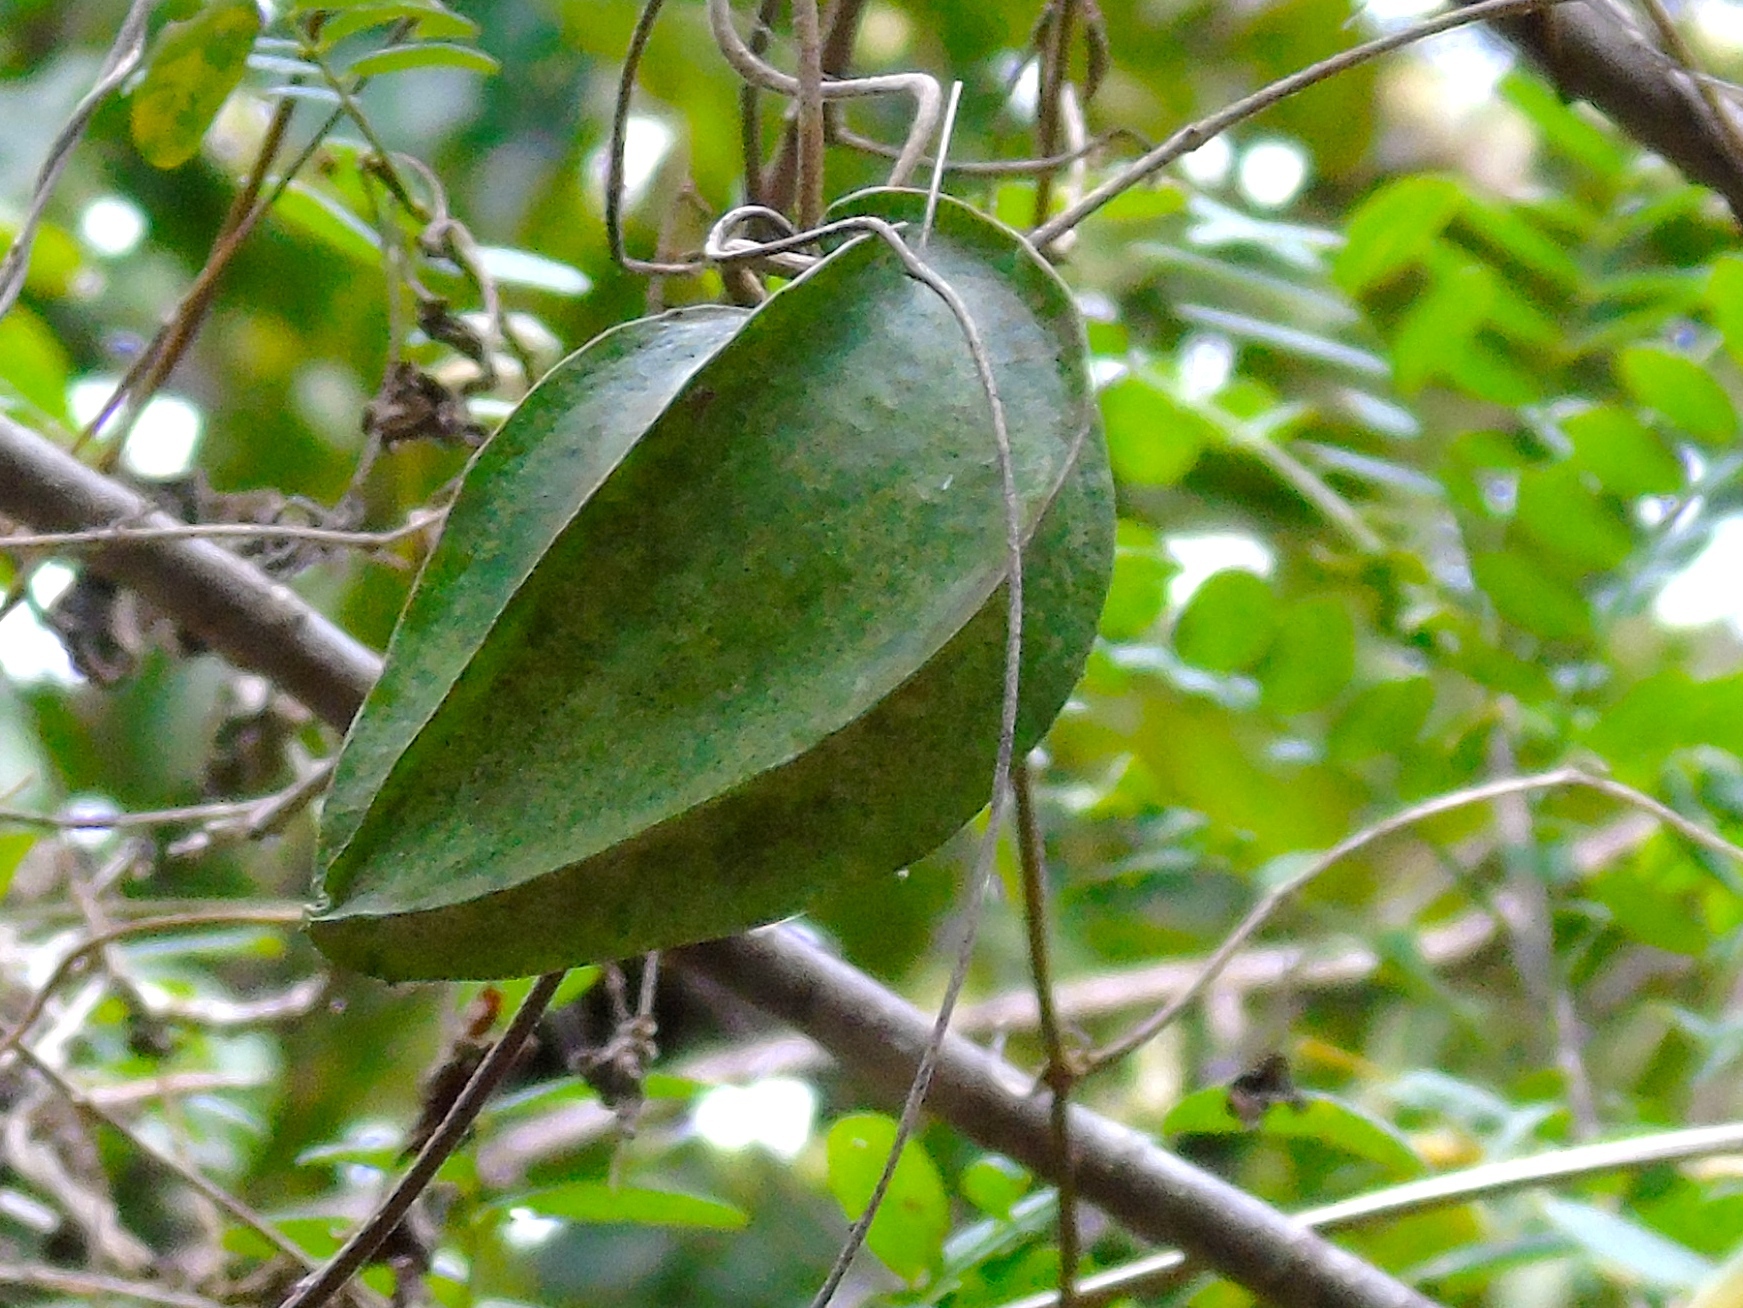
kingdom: Plantae
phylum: Tracheophyta
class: Magnoliopsida
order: Gentianales
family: Apocynaceae
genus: Gonolobus
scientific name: Gonolobus naturalistae
